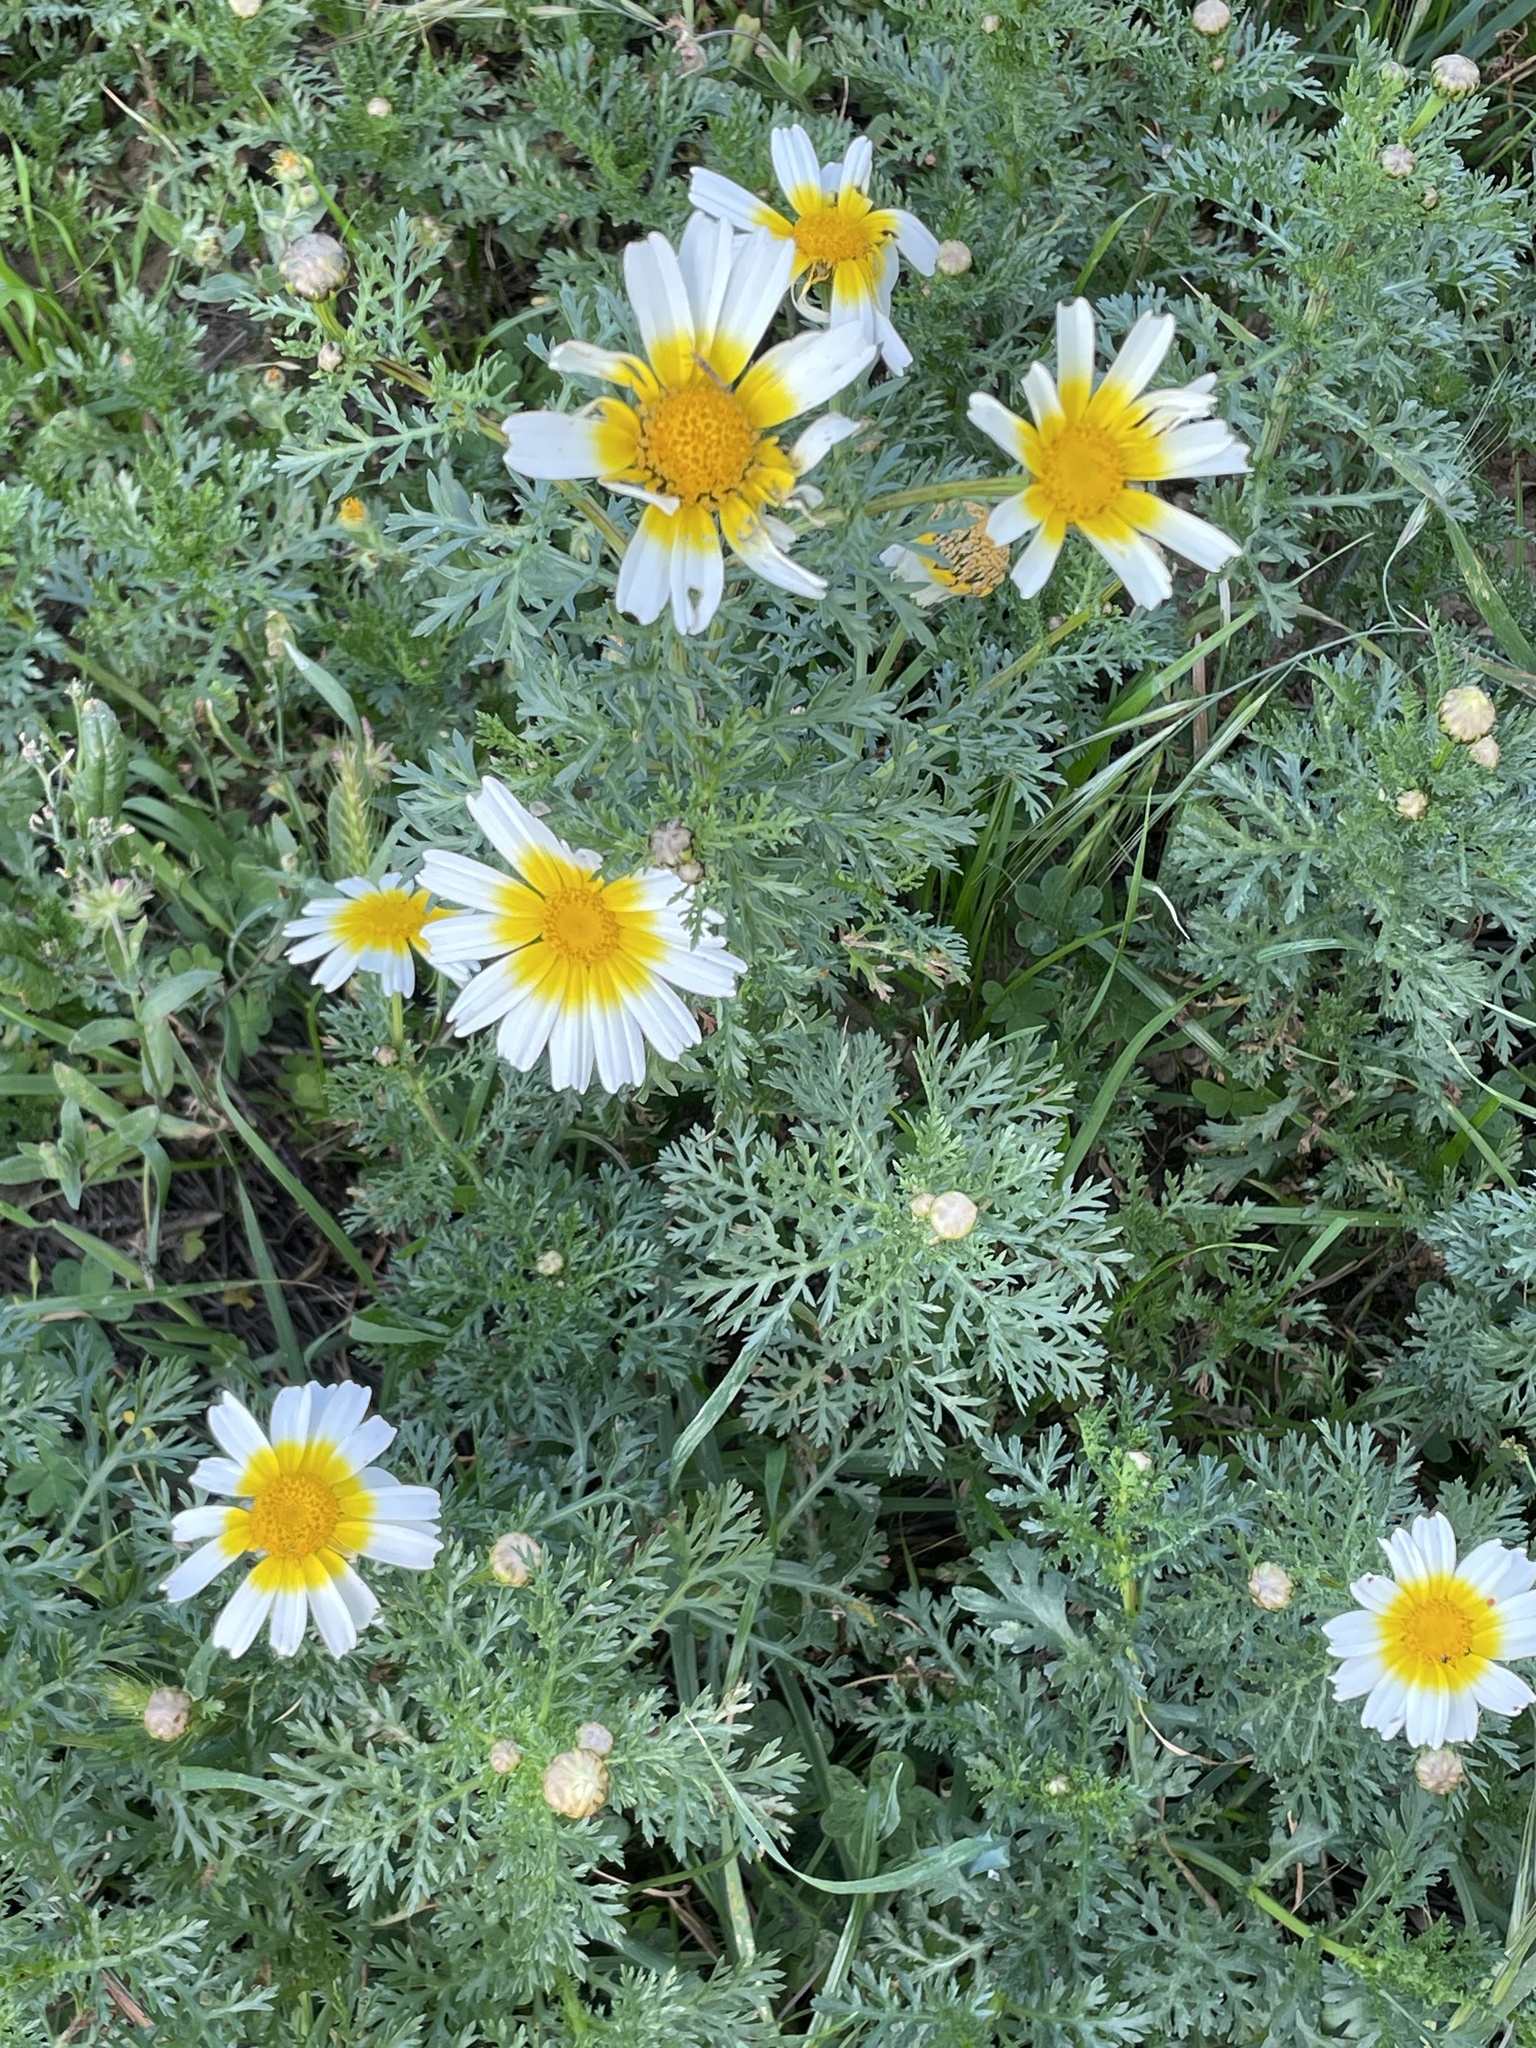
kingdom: Plantae
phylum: Tracheophyta
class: Magnoliopsida
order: Asterales
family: Asteraceae
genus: Glebionis
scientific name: Glebionis coronaria
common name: Crowndaisy
